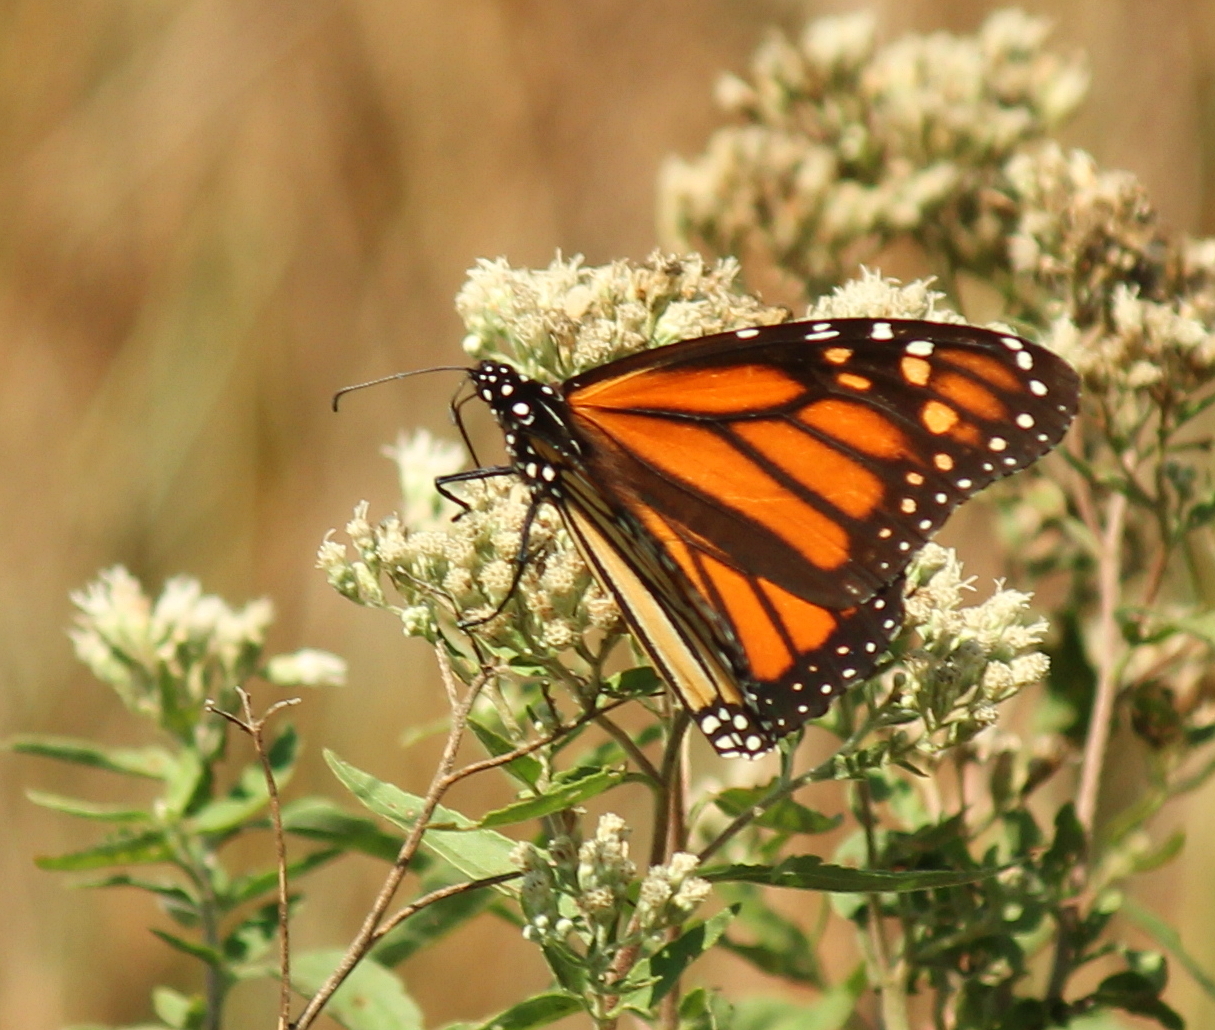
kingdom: Animalia
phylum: Arthropoda
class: Insecta
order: Lepidoptera
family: Nymphalidae
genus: Danaus
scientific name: Danaus plexippus
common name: Monarch
